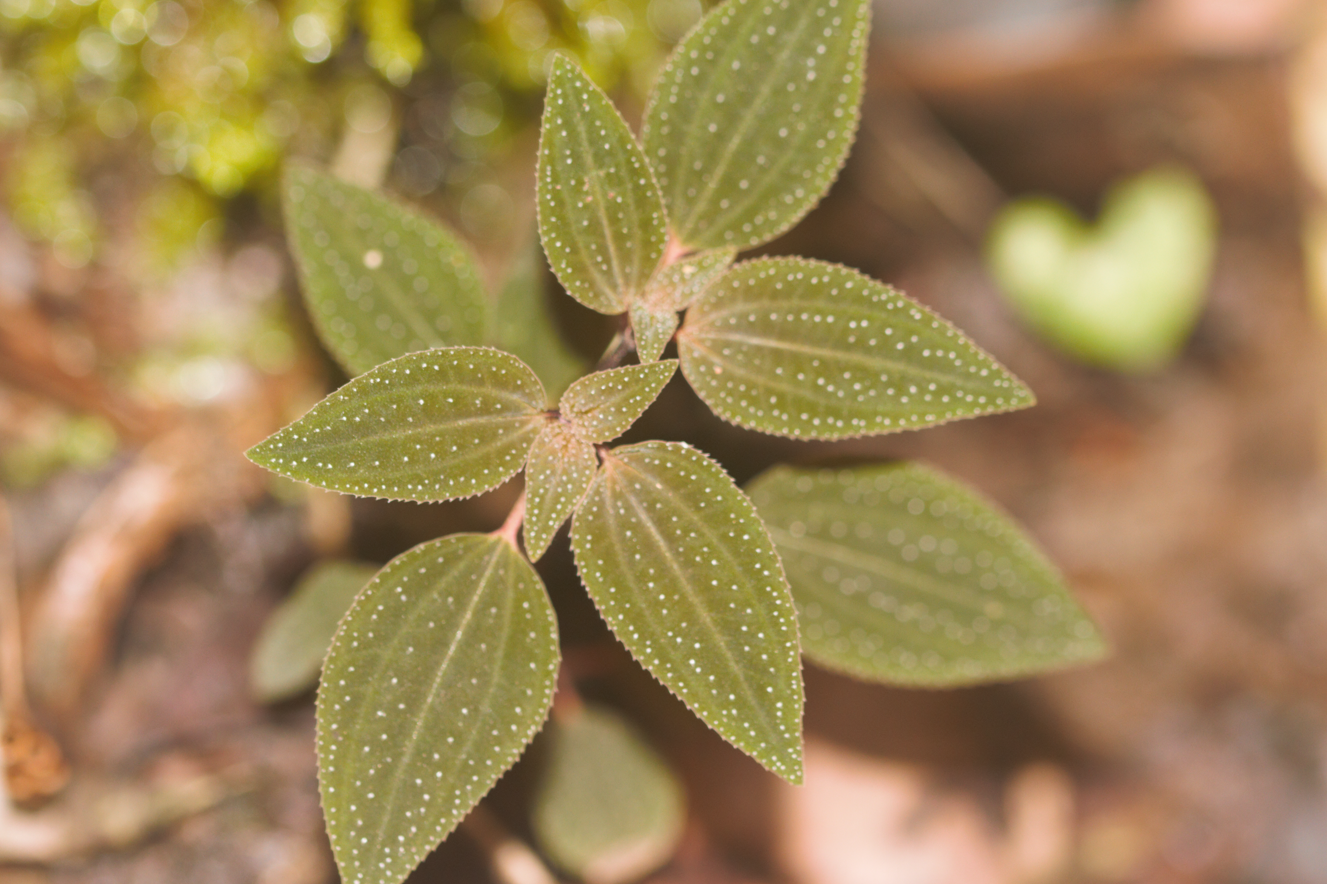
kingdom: Plantae
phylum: Tracheophyta
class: Magnoliopsida
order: Myrtales
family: Melastomataceae
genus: Macrocentrum
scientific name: Macrocentrum cristatum
